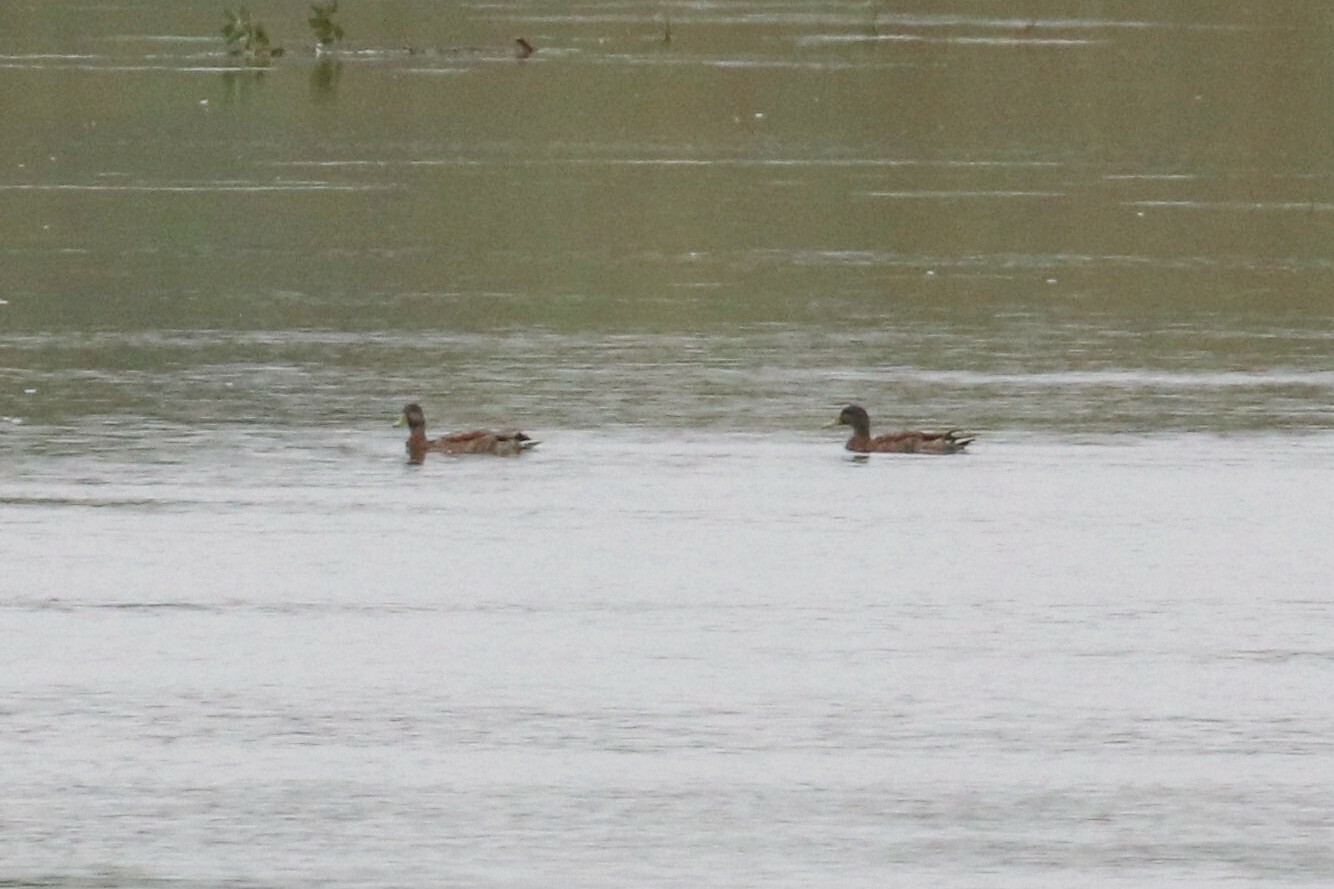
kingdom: Animalia
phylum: Chordata
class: Aves
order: Anseriformes
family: Anatidae
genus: Anas
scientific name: Anas platyrhynchos
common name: Mallard
